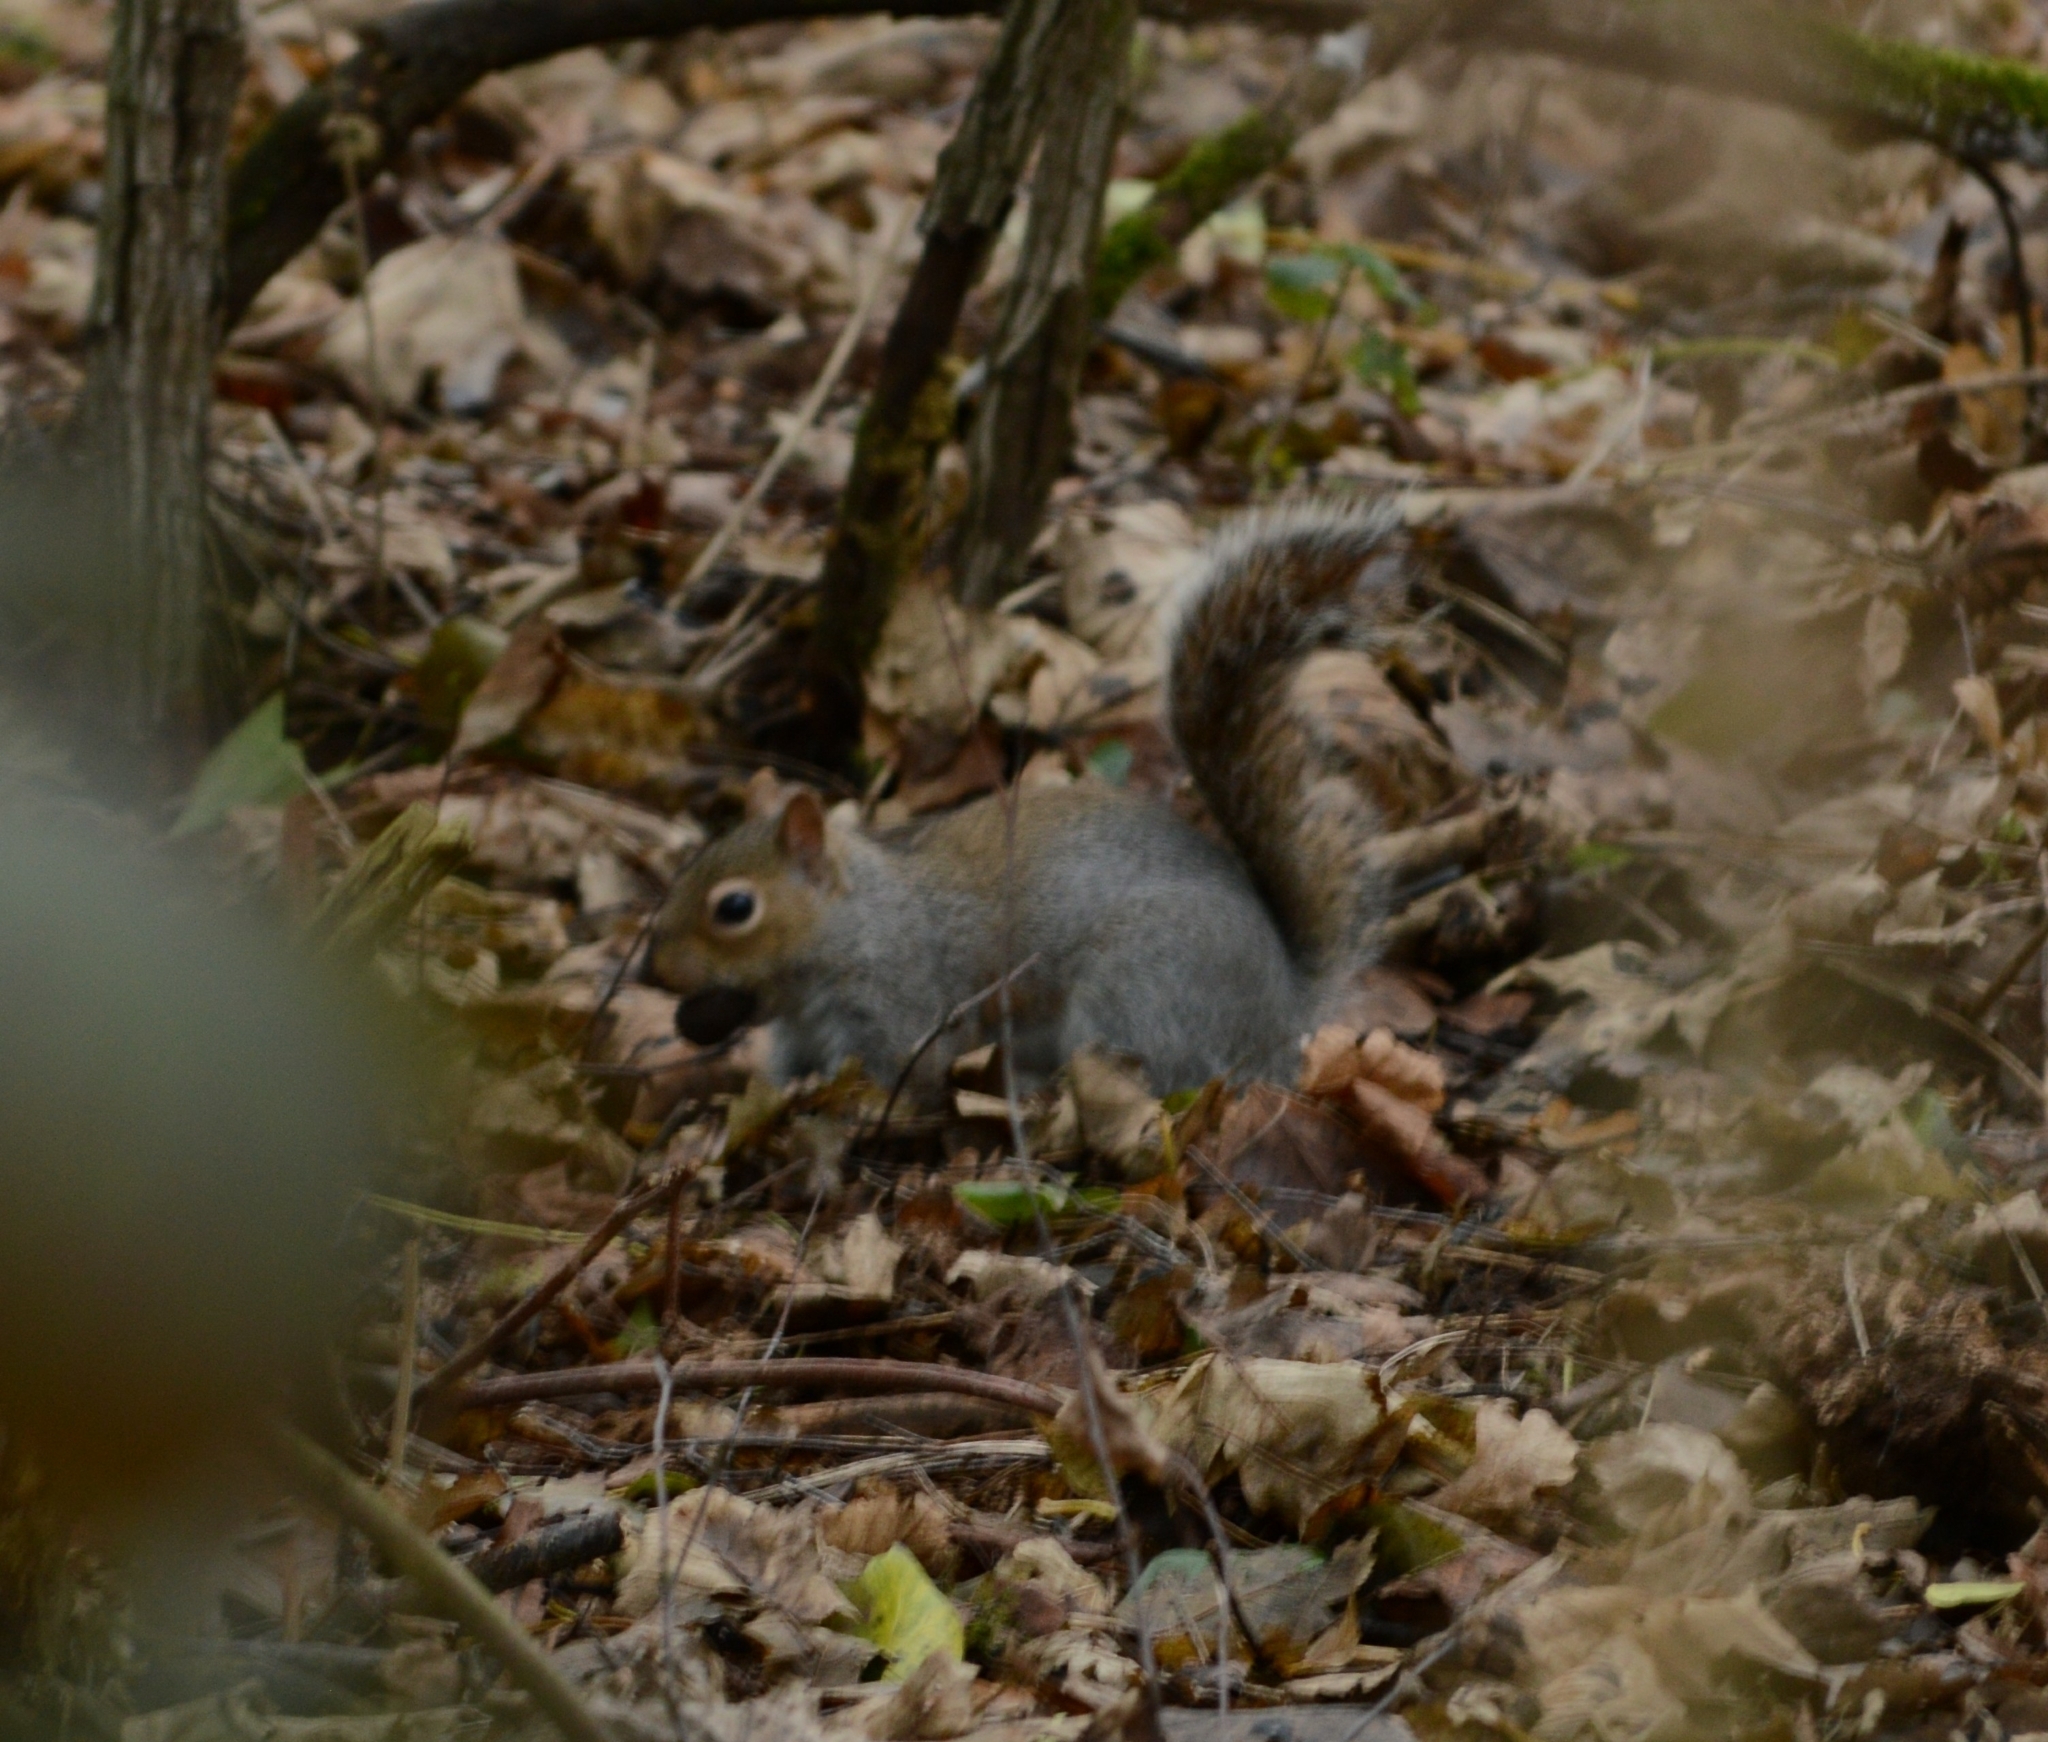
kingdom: Animalia
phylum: Chordata
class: Mammalia
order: Rodentia
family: Sciuridae
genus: Sciurus
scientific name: Sciurus carolinensis
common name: Eastern gray squirrel
